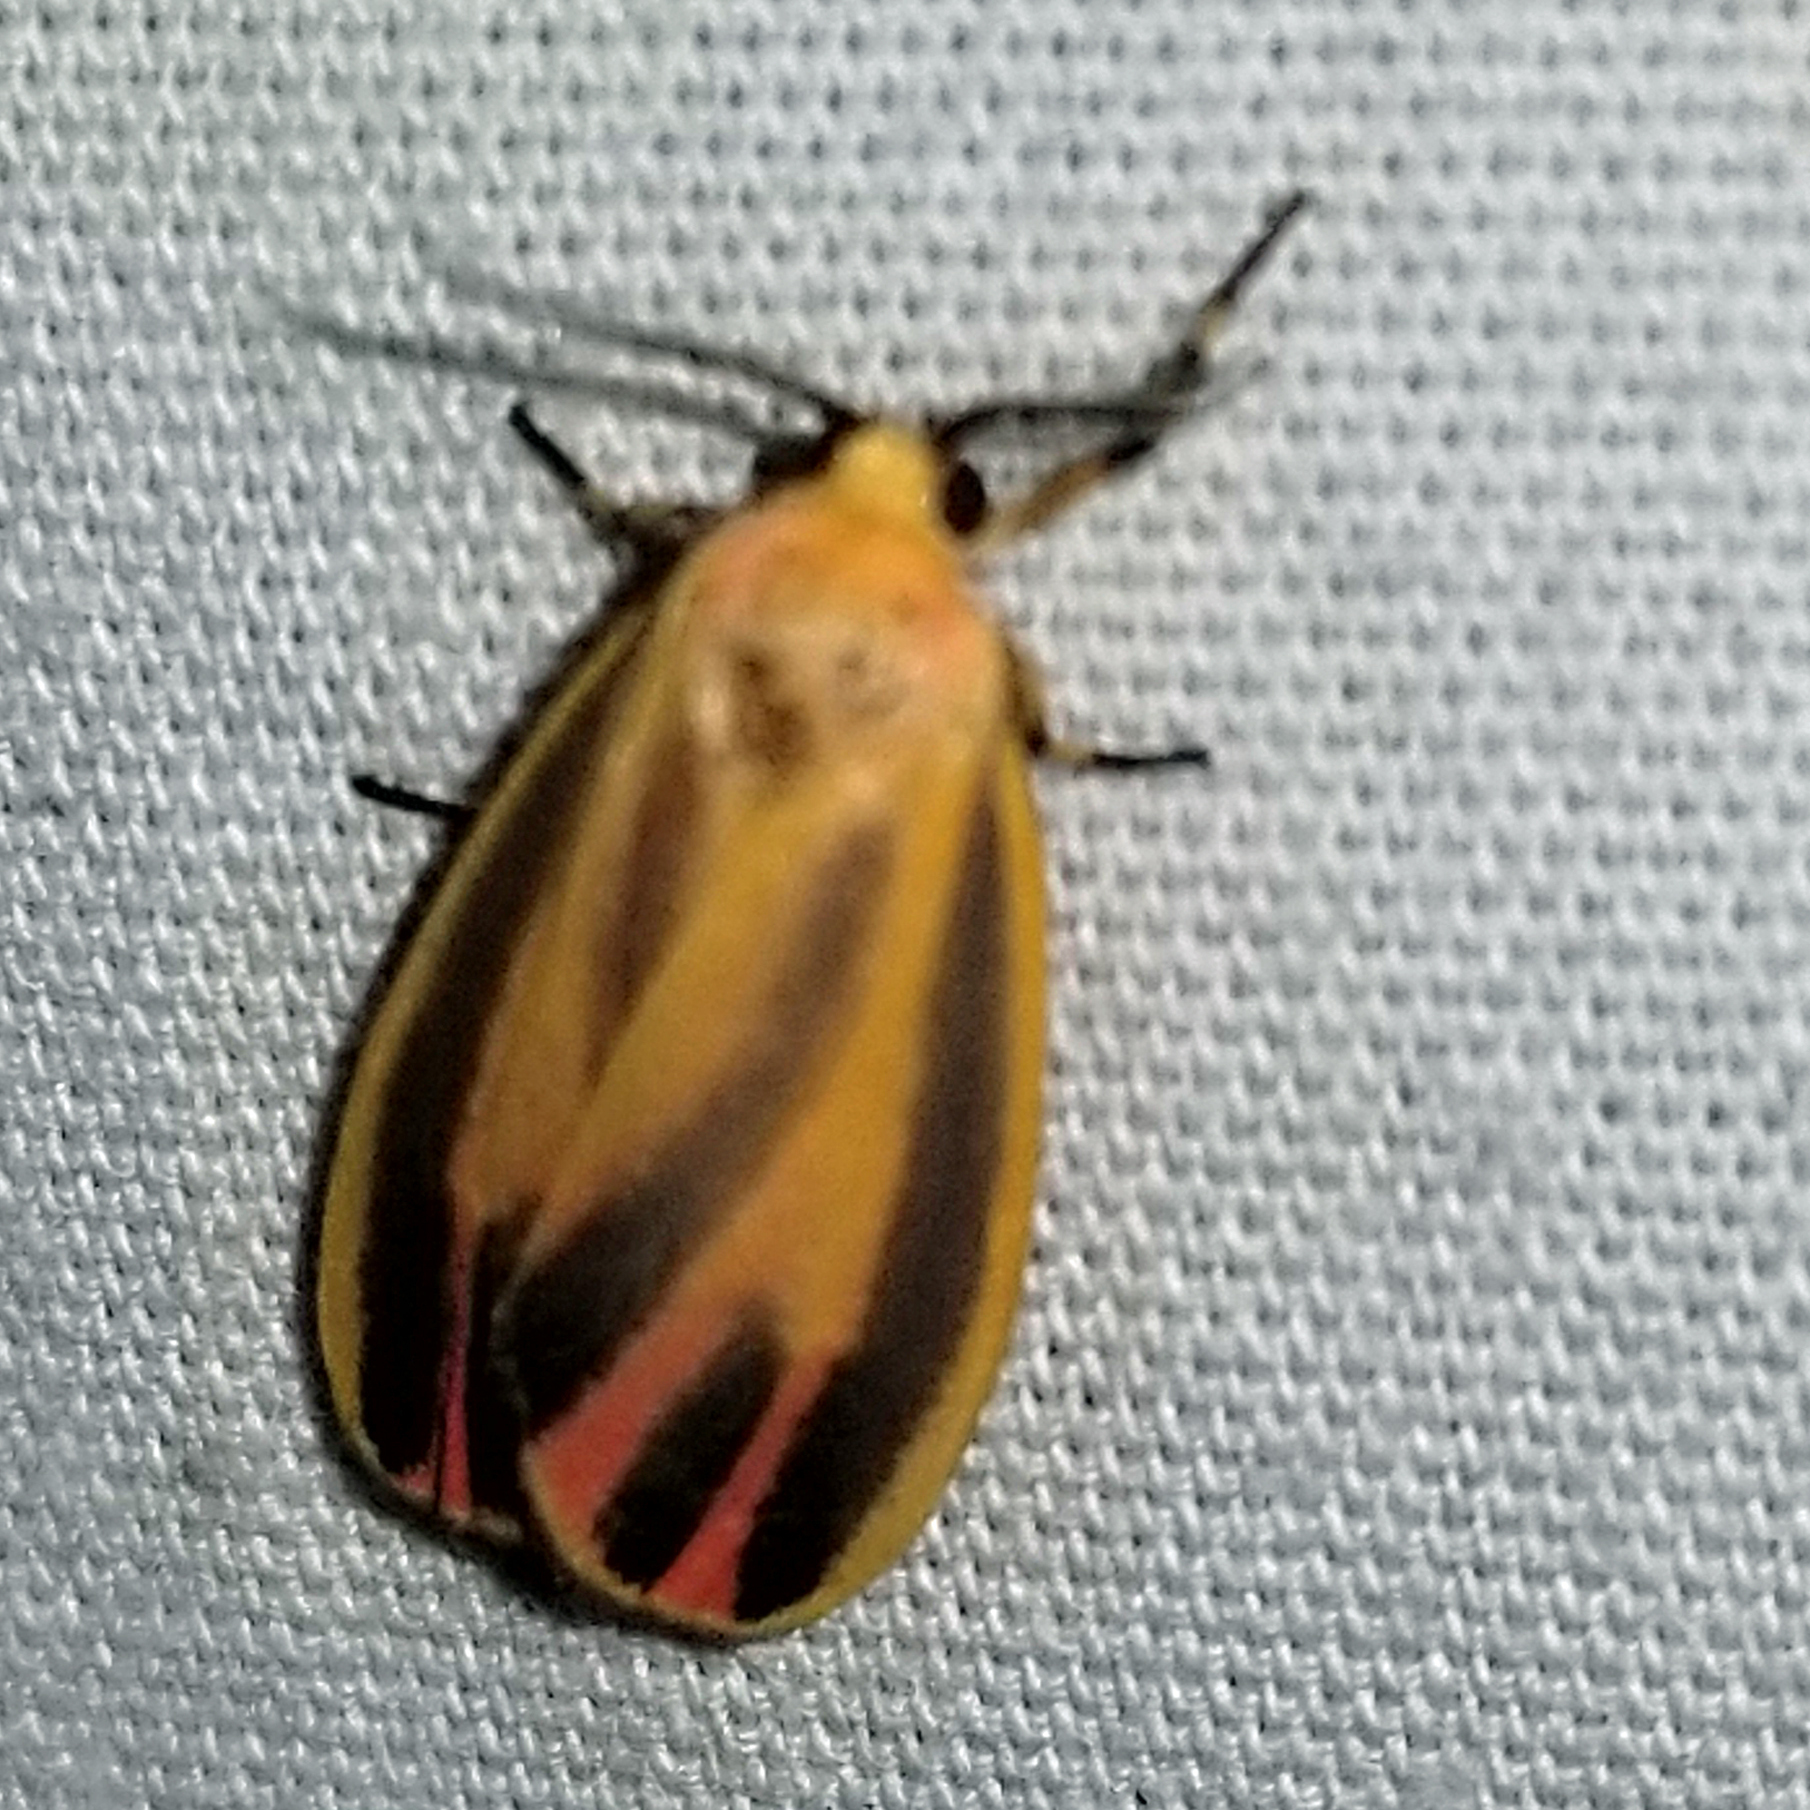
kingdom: Animalia
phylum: Arthropoda
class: Insecta
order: Lepidoptera
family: Erebidae
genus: Hypoprepia
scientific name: Hypoprepia fucosa
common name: Painted lichen moth
